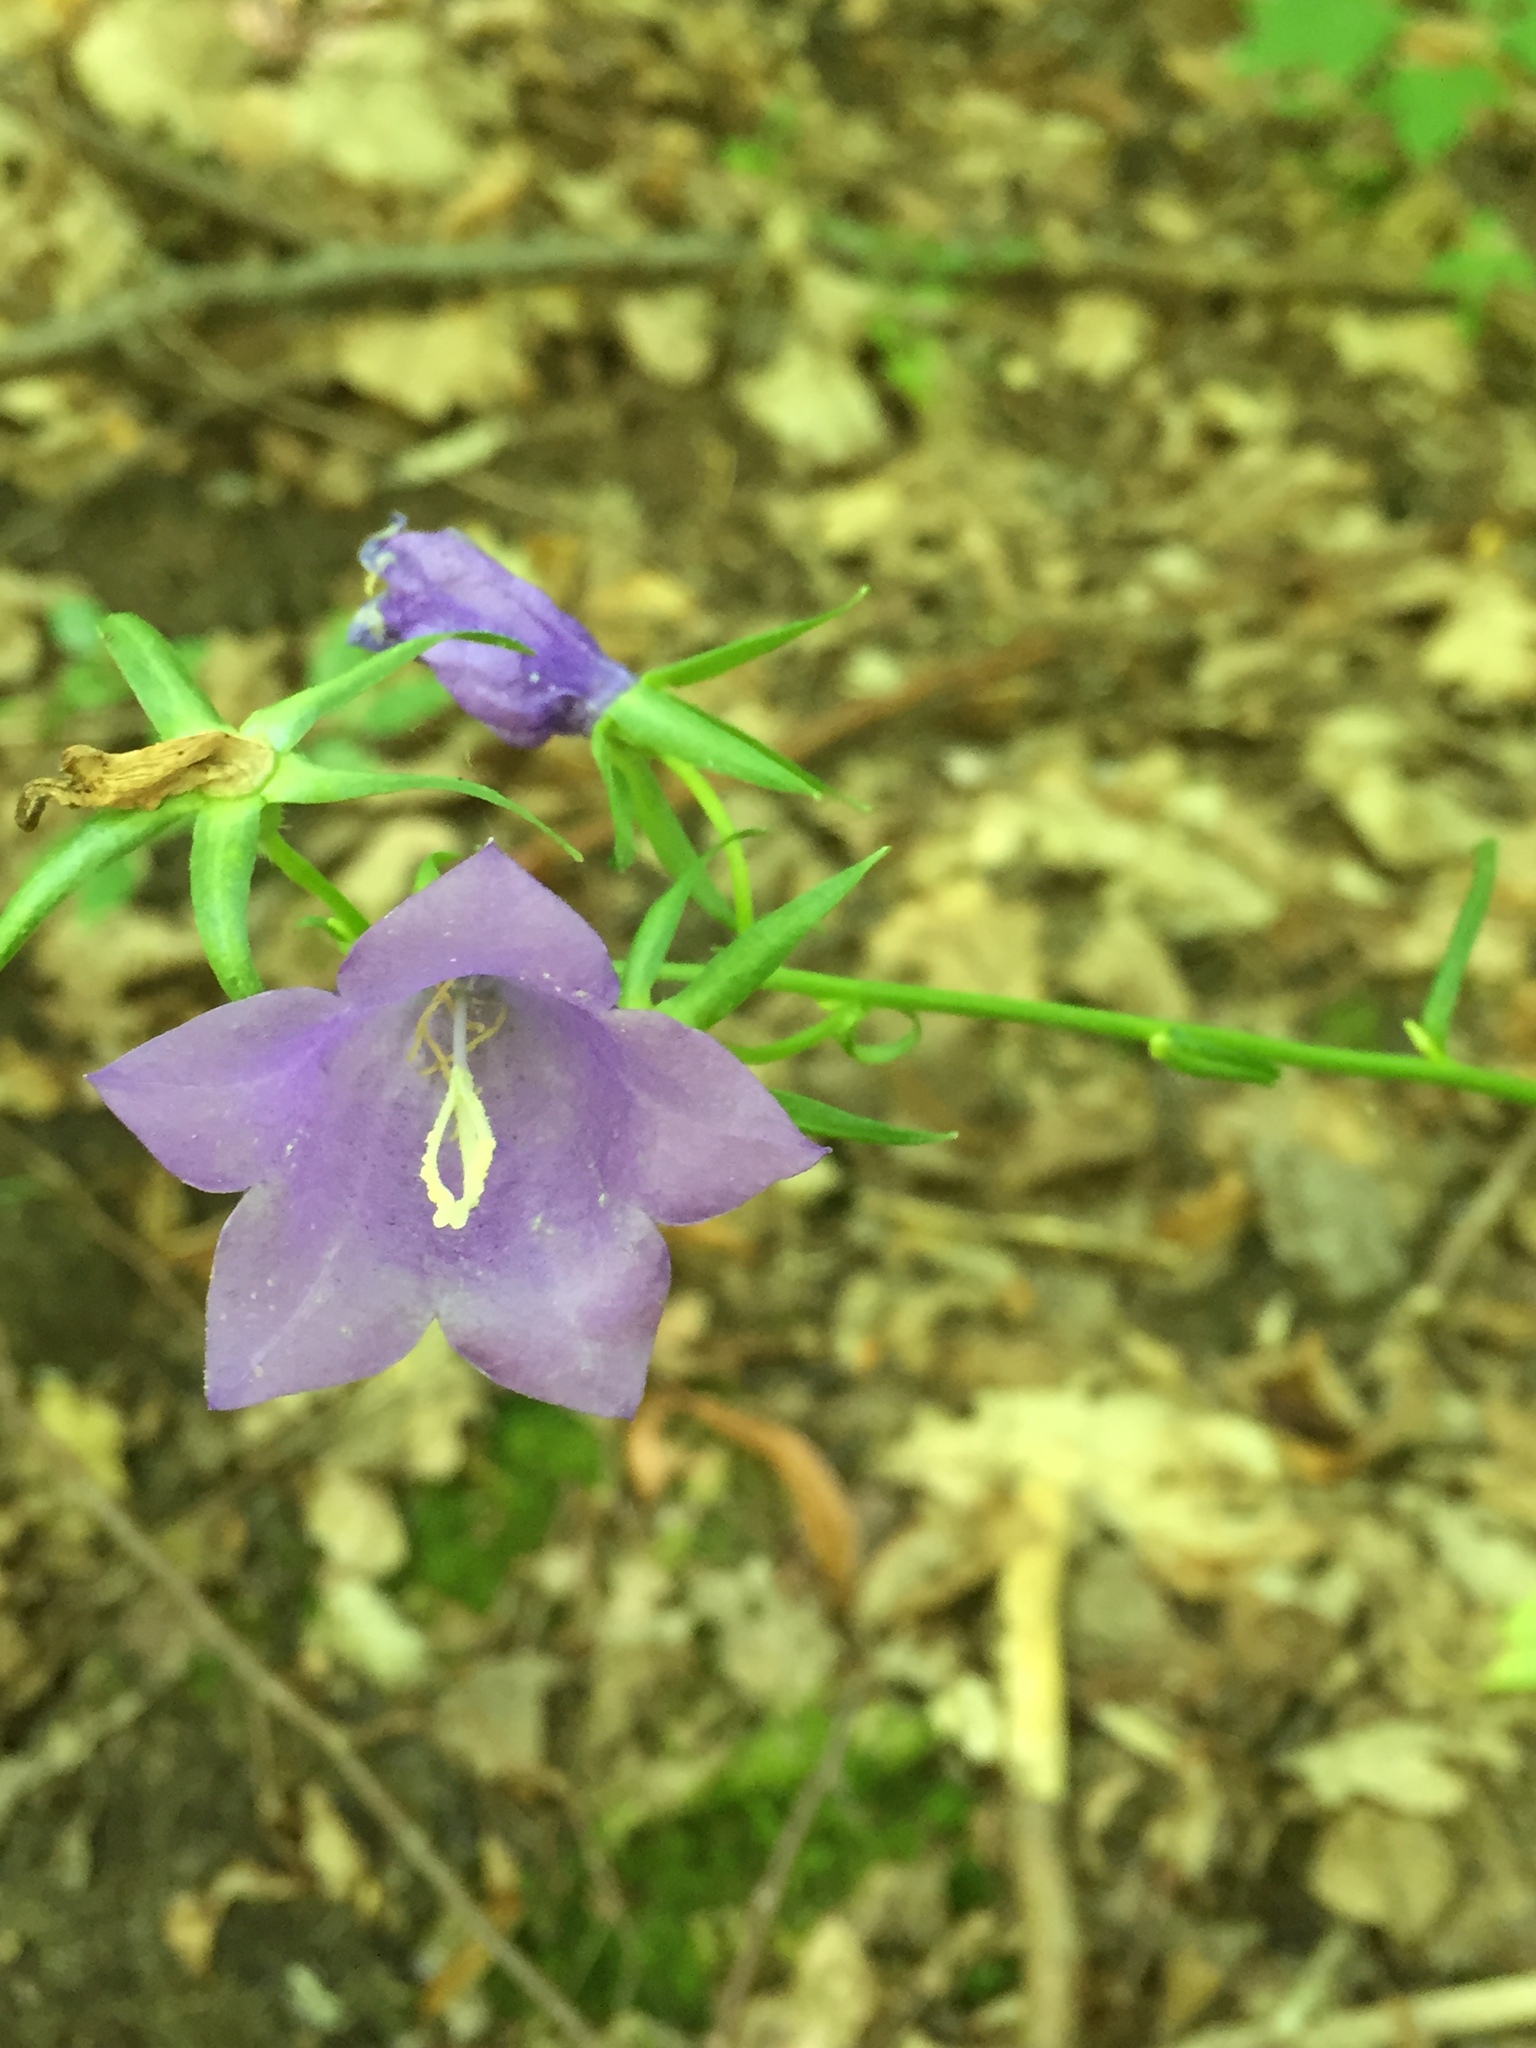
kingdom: Plantae
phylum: Tracheophyta
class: Magnoliopsida
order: Asterales
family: Campanulaceae
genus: Campanula
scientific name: Campanula persicifolia
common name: Peach-leaved bellflower
